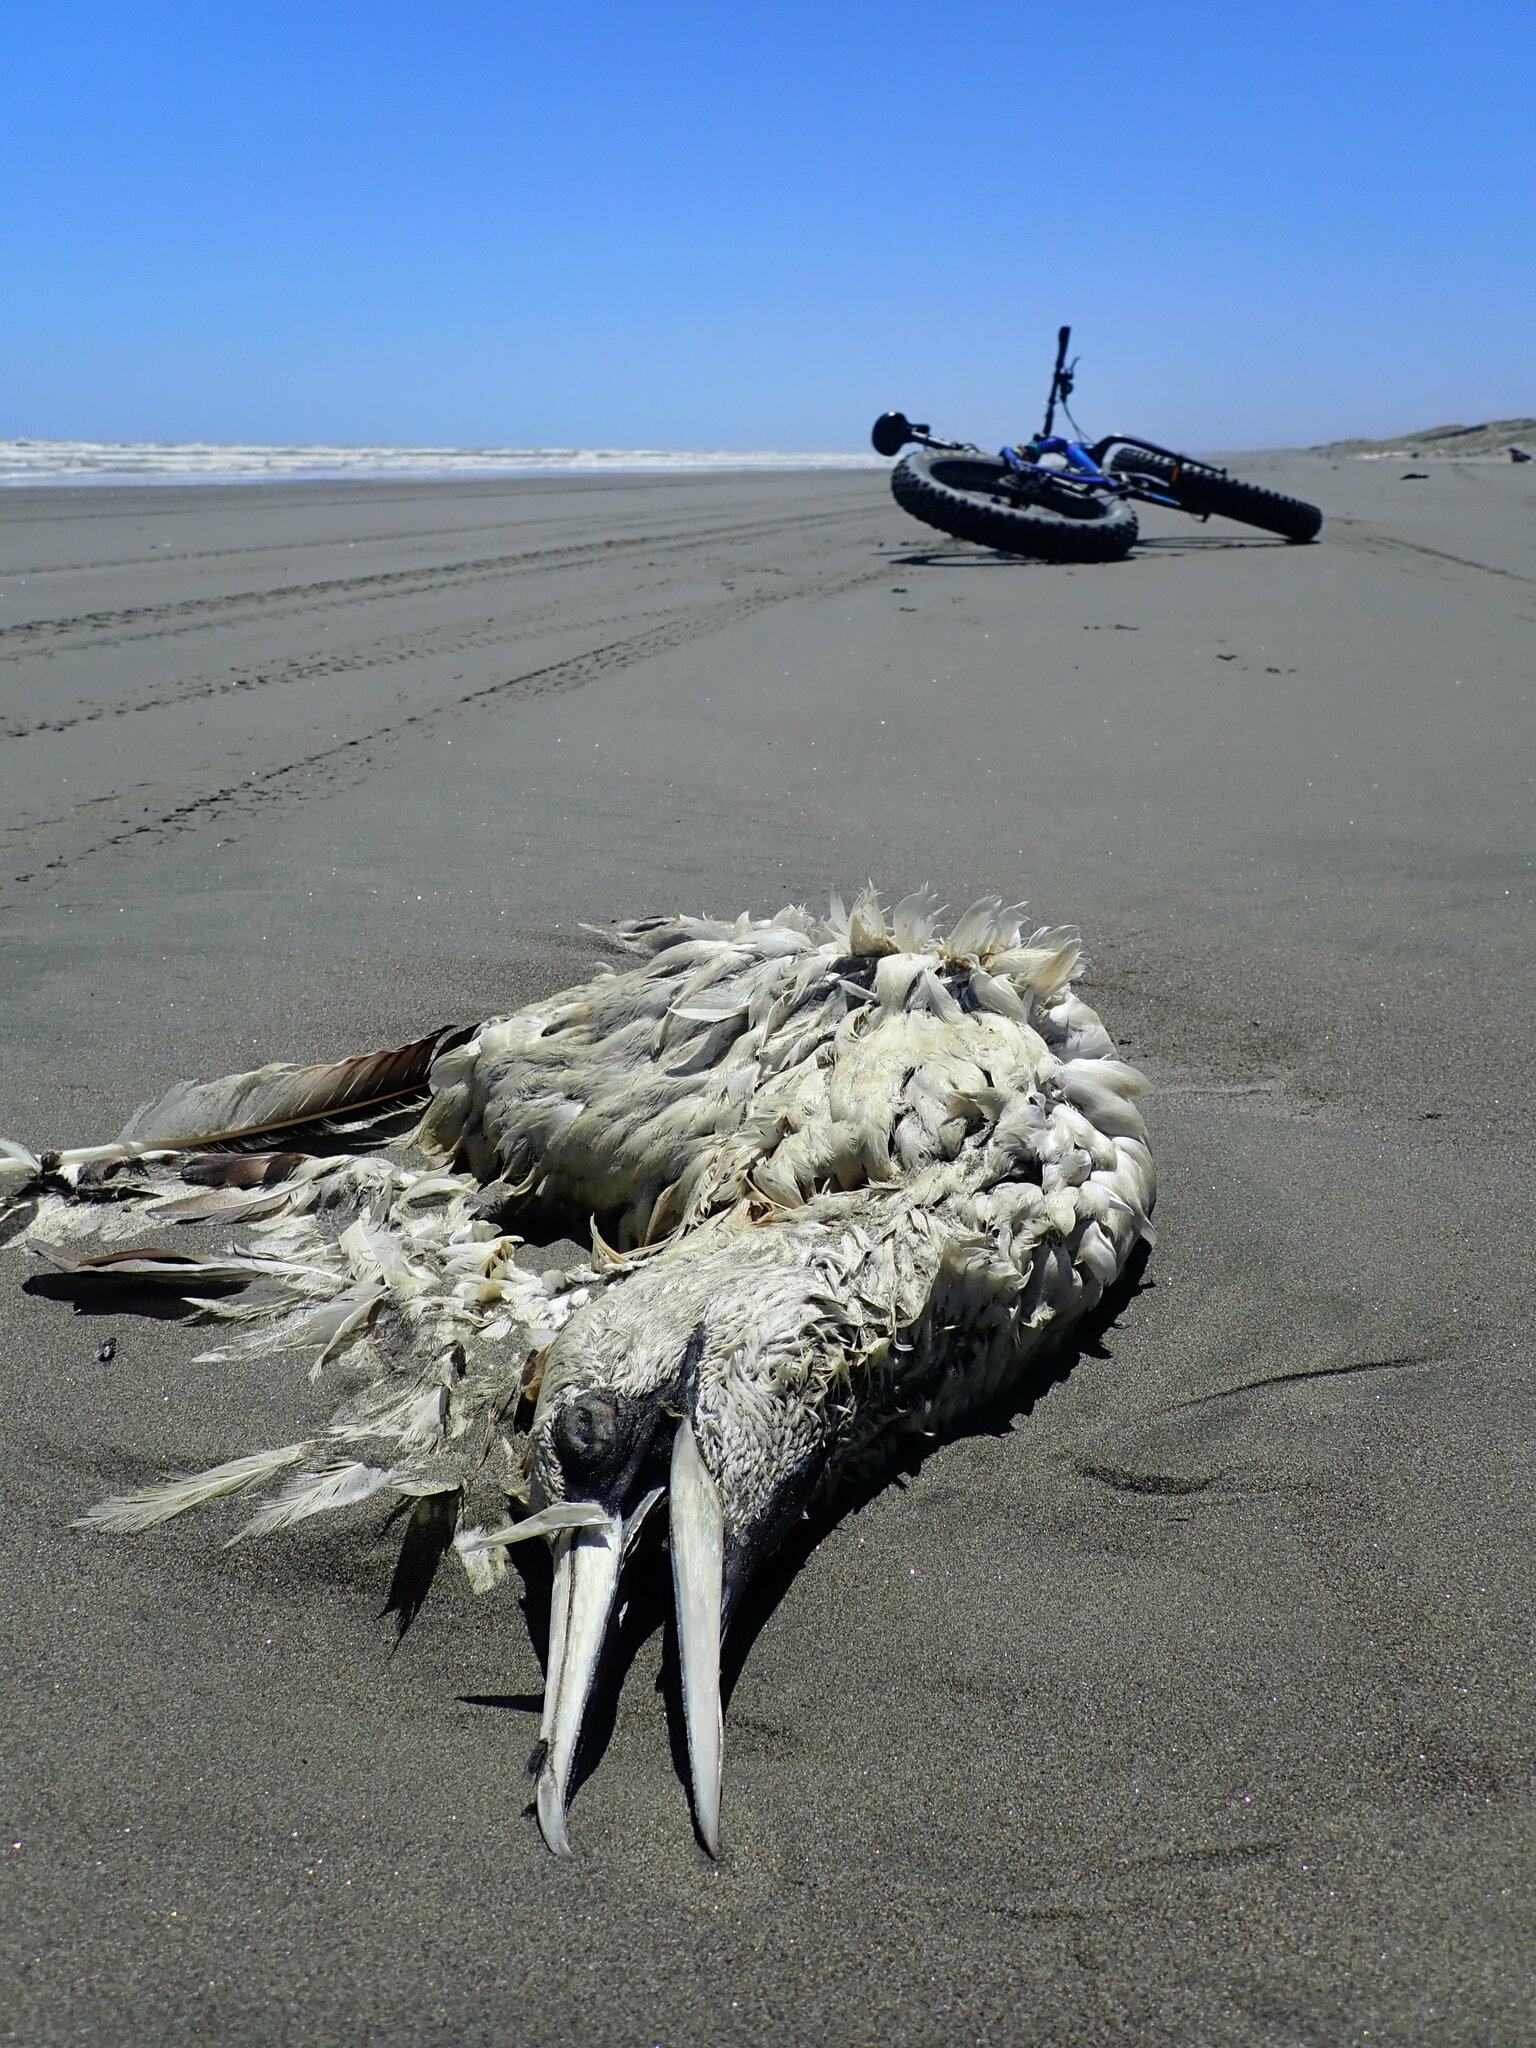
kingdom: Animalia
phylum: Chordata
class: Aves
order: Suliformes
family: Sulidae
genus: Morus
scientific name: Morus serrator
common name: Australasian gannet
